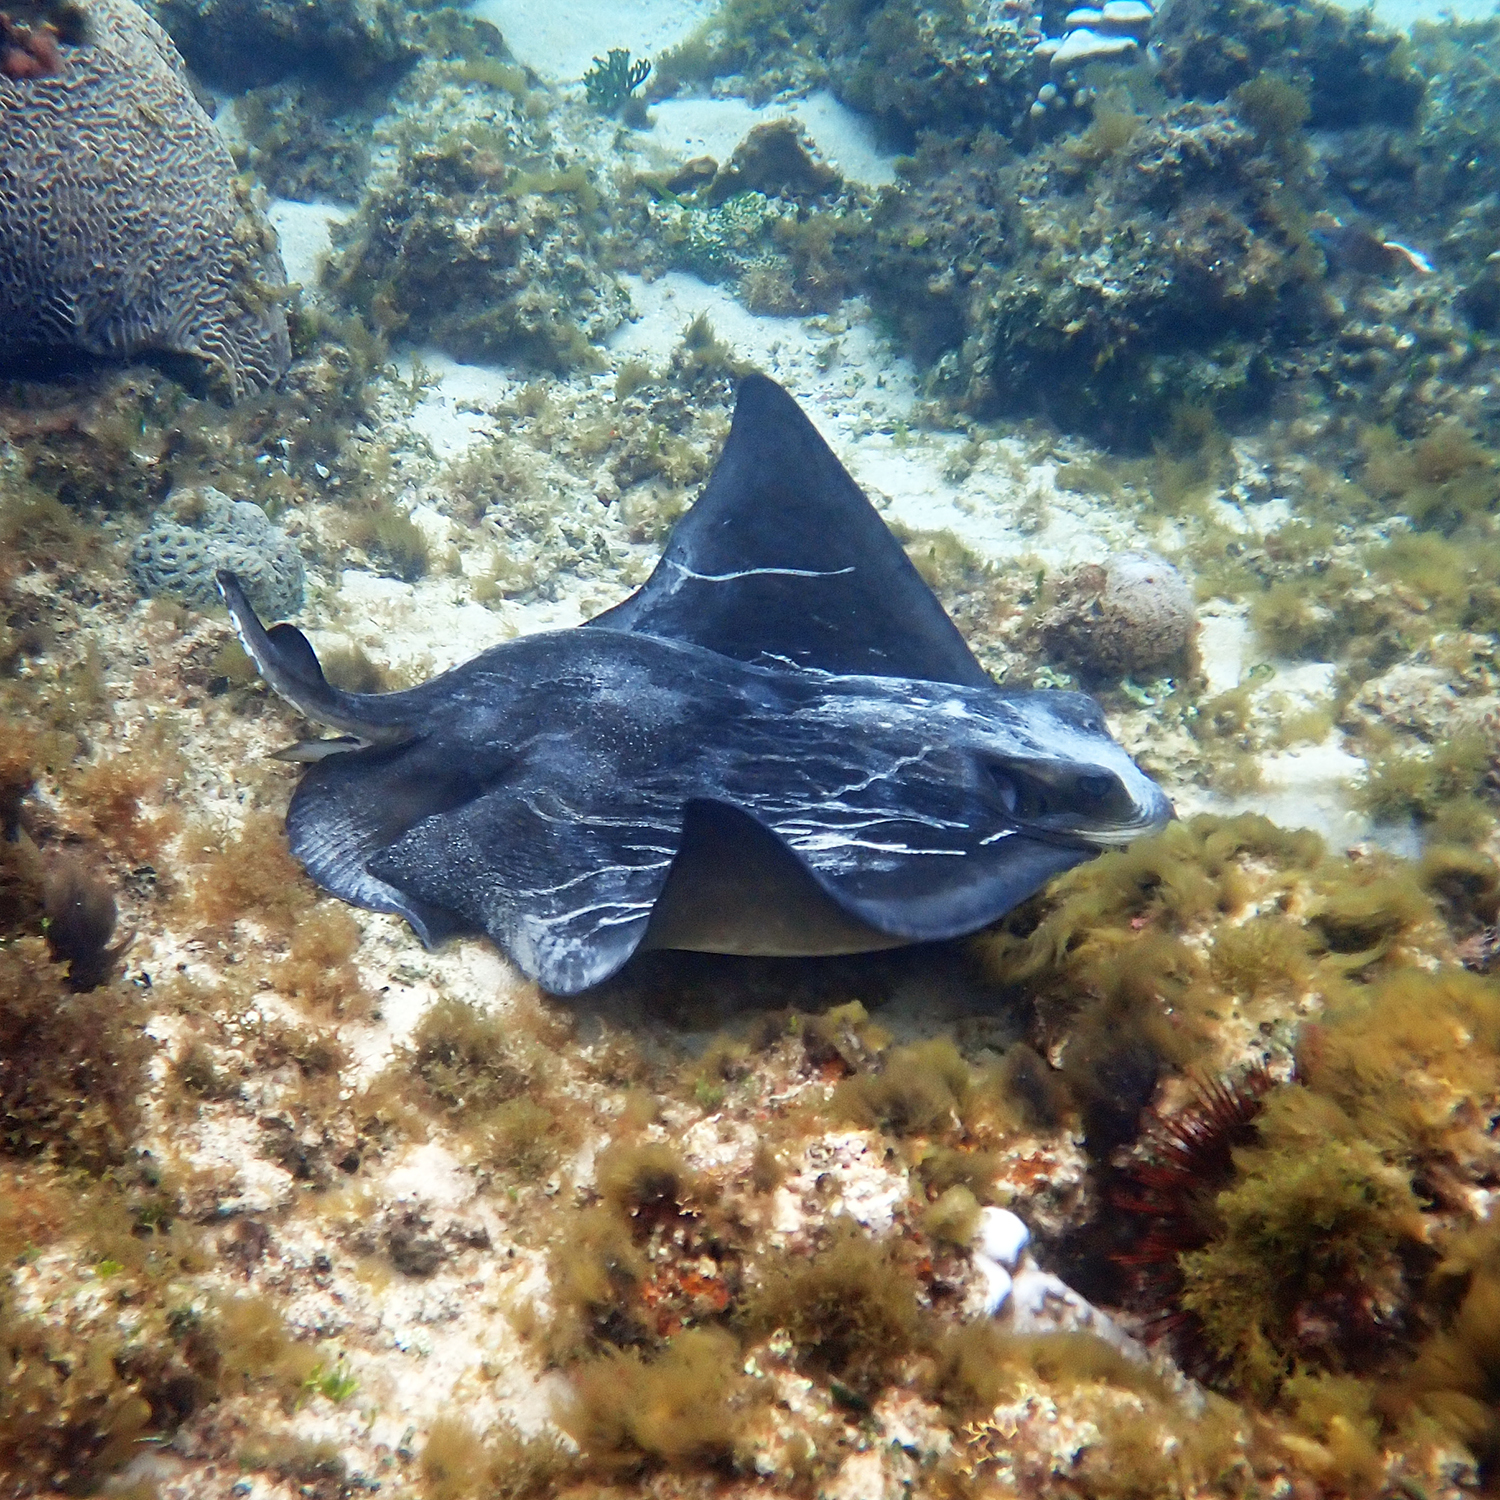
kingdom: Animalia
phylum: Chordata
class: Elasmobranchii
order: Myliobatiformes
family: Myliobatidae
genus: Myliobatis
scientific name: Myliobatis tenuicaudatus
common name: Eagle ray
